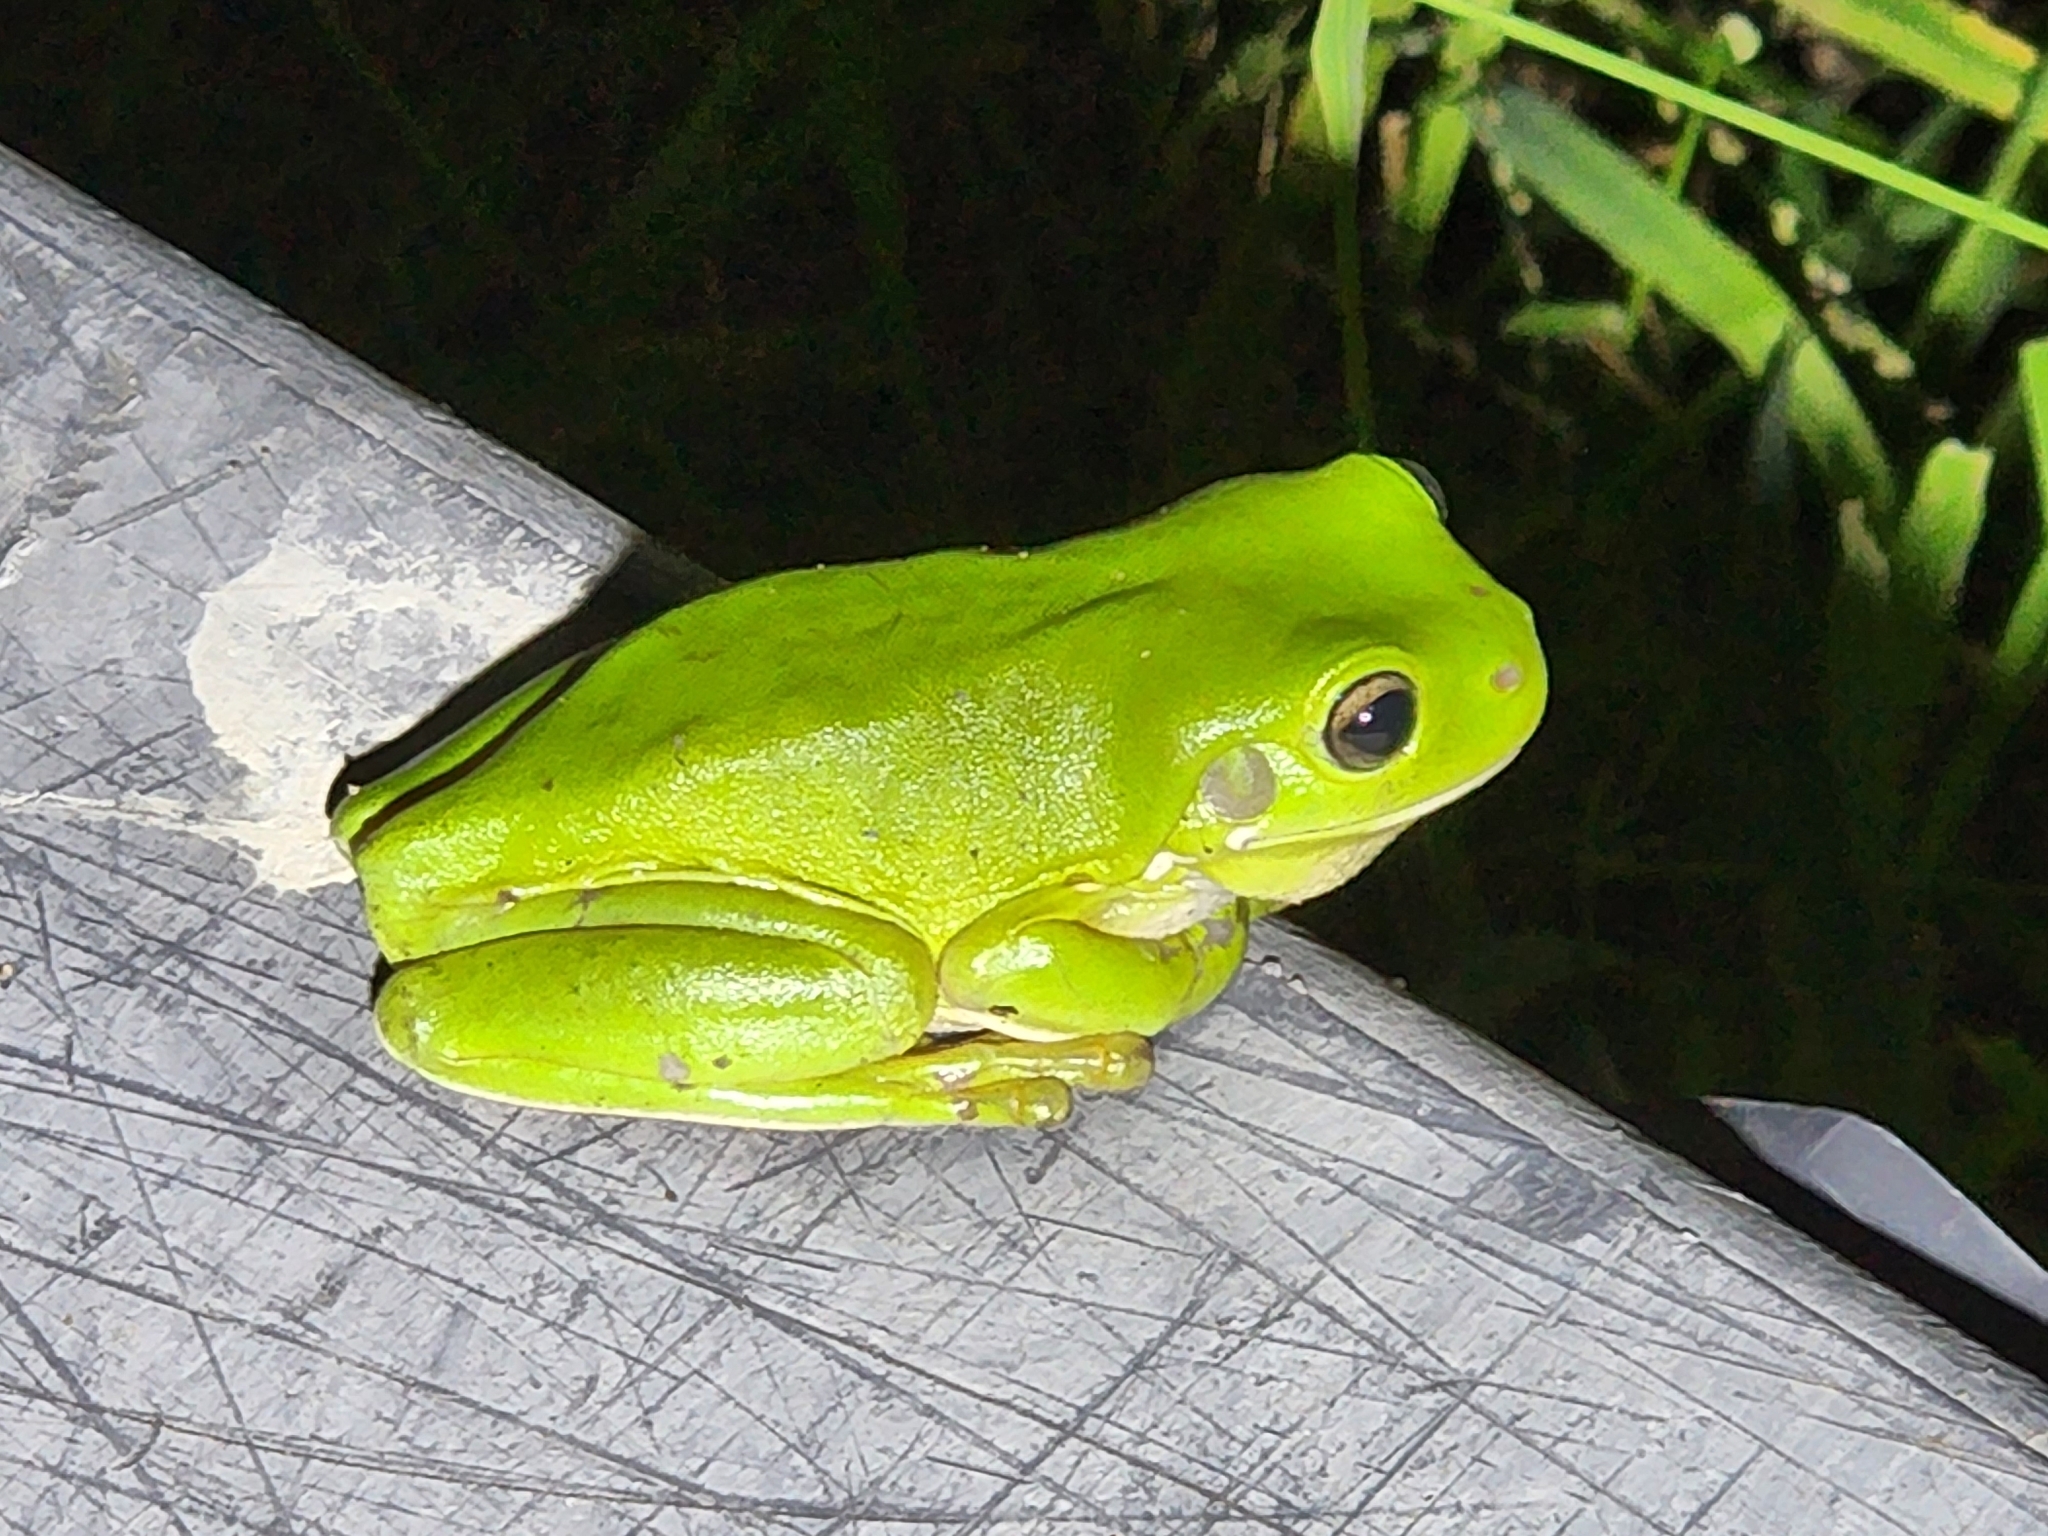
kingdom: Animalia
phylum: Chordata
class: Amphibia
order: Anura
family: Pelodryadidae
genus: Ranoidea
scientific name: Ranoidea caerulea
